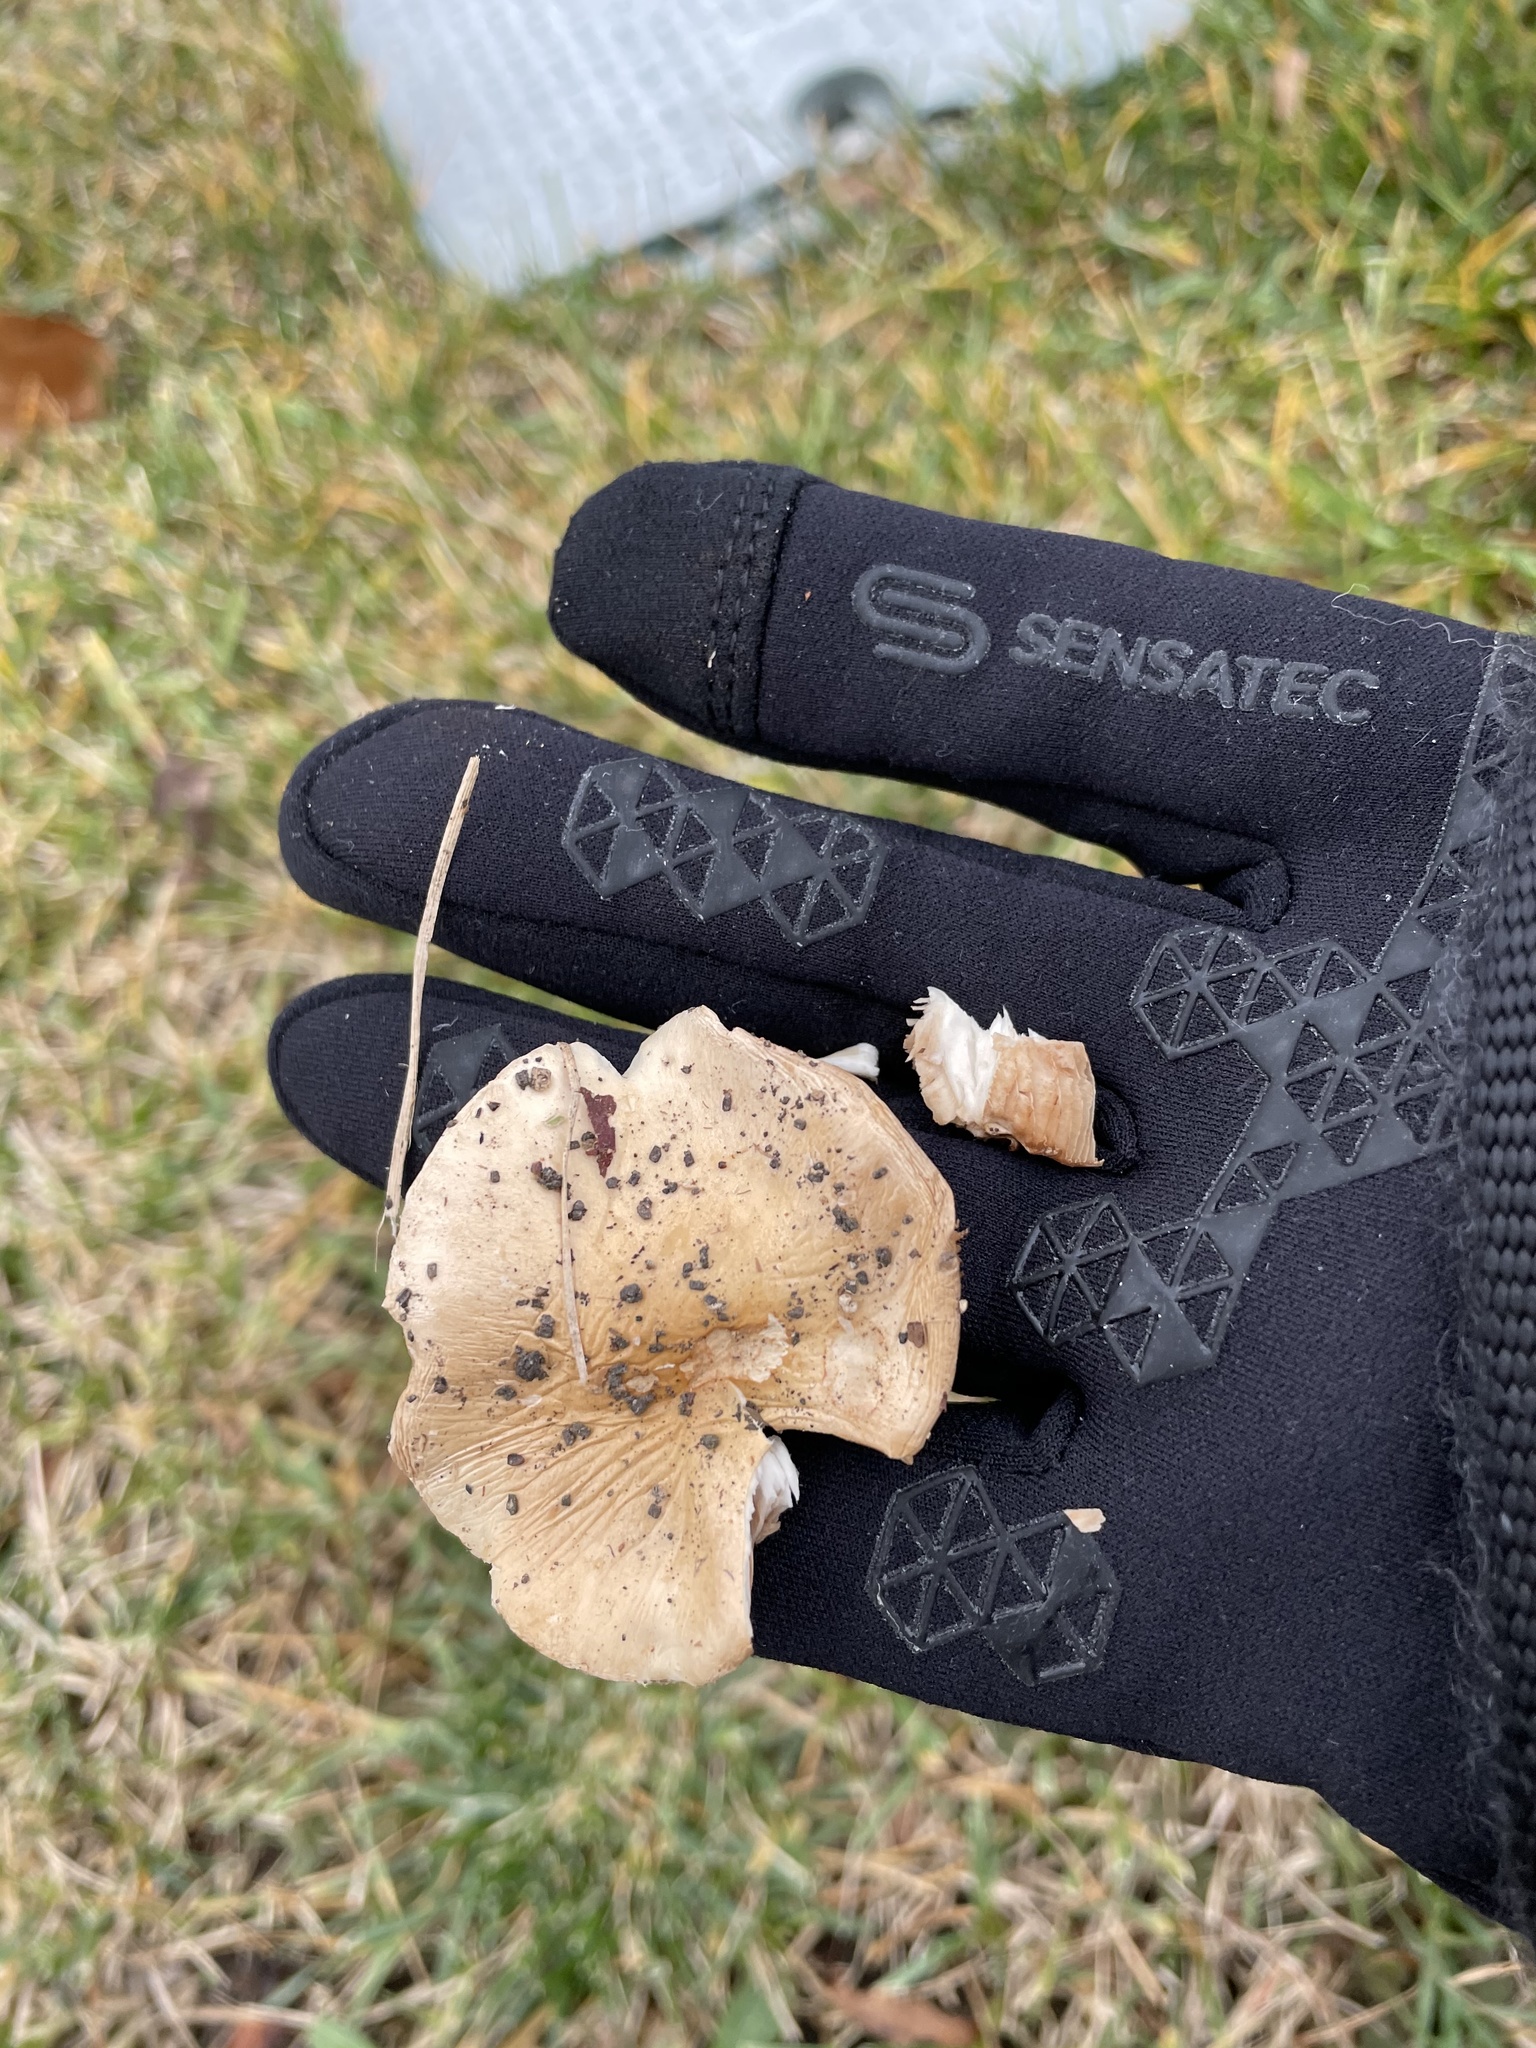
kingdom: Fungi
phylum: Basidiomycota
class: Agaricomycetes
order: Agaricales
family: Pluteaceae
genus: Volvopluteus
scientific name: Volvopluteus gloiocephalus
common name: Stubble rosegill
